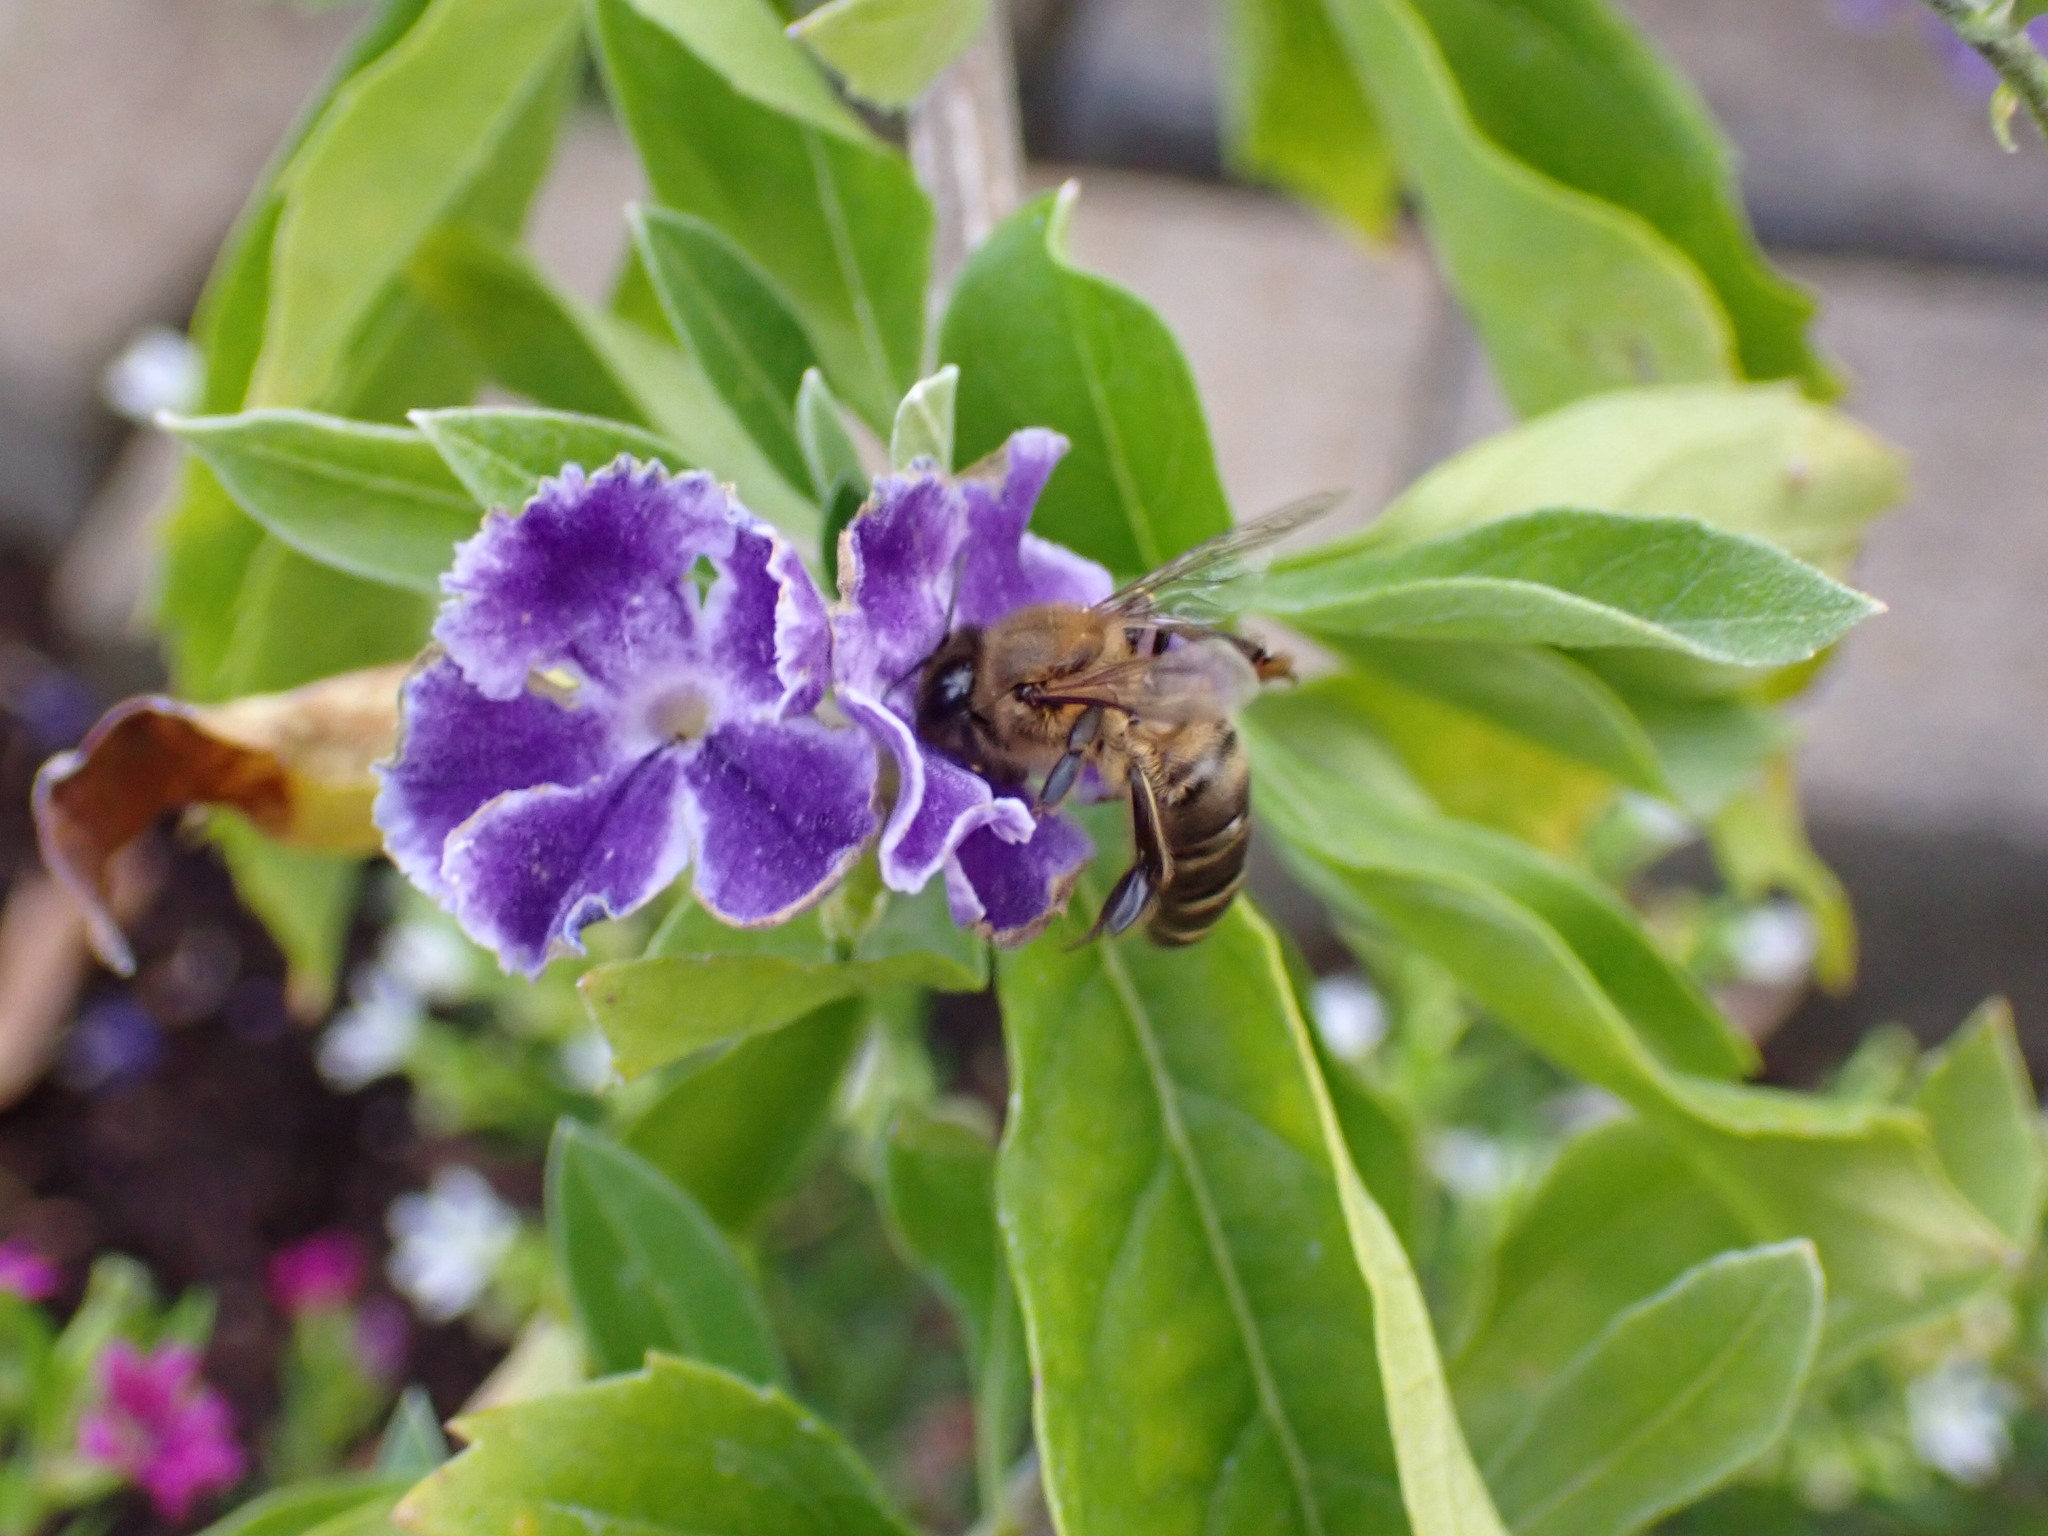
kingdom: Animalia
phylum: Arthropoda
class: Insecta
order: Hymenoptera
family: Apidae
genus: Apis
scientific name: Apis mellifera
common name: Honey bee
